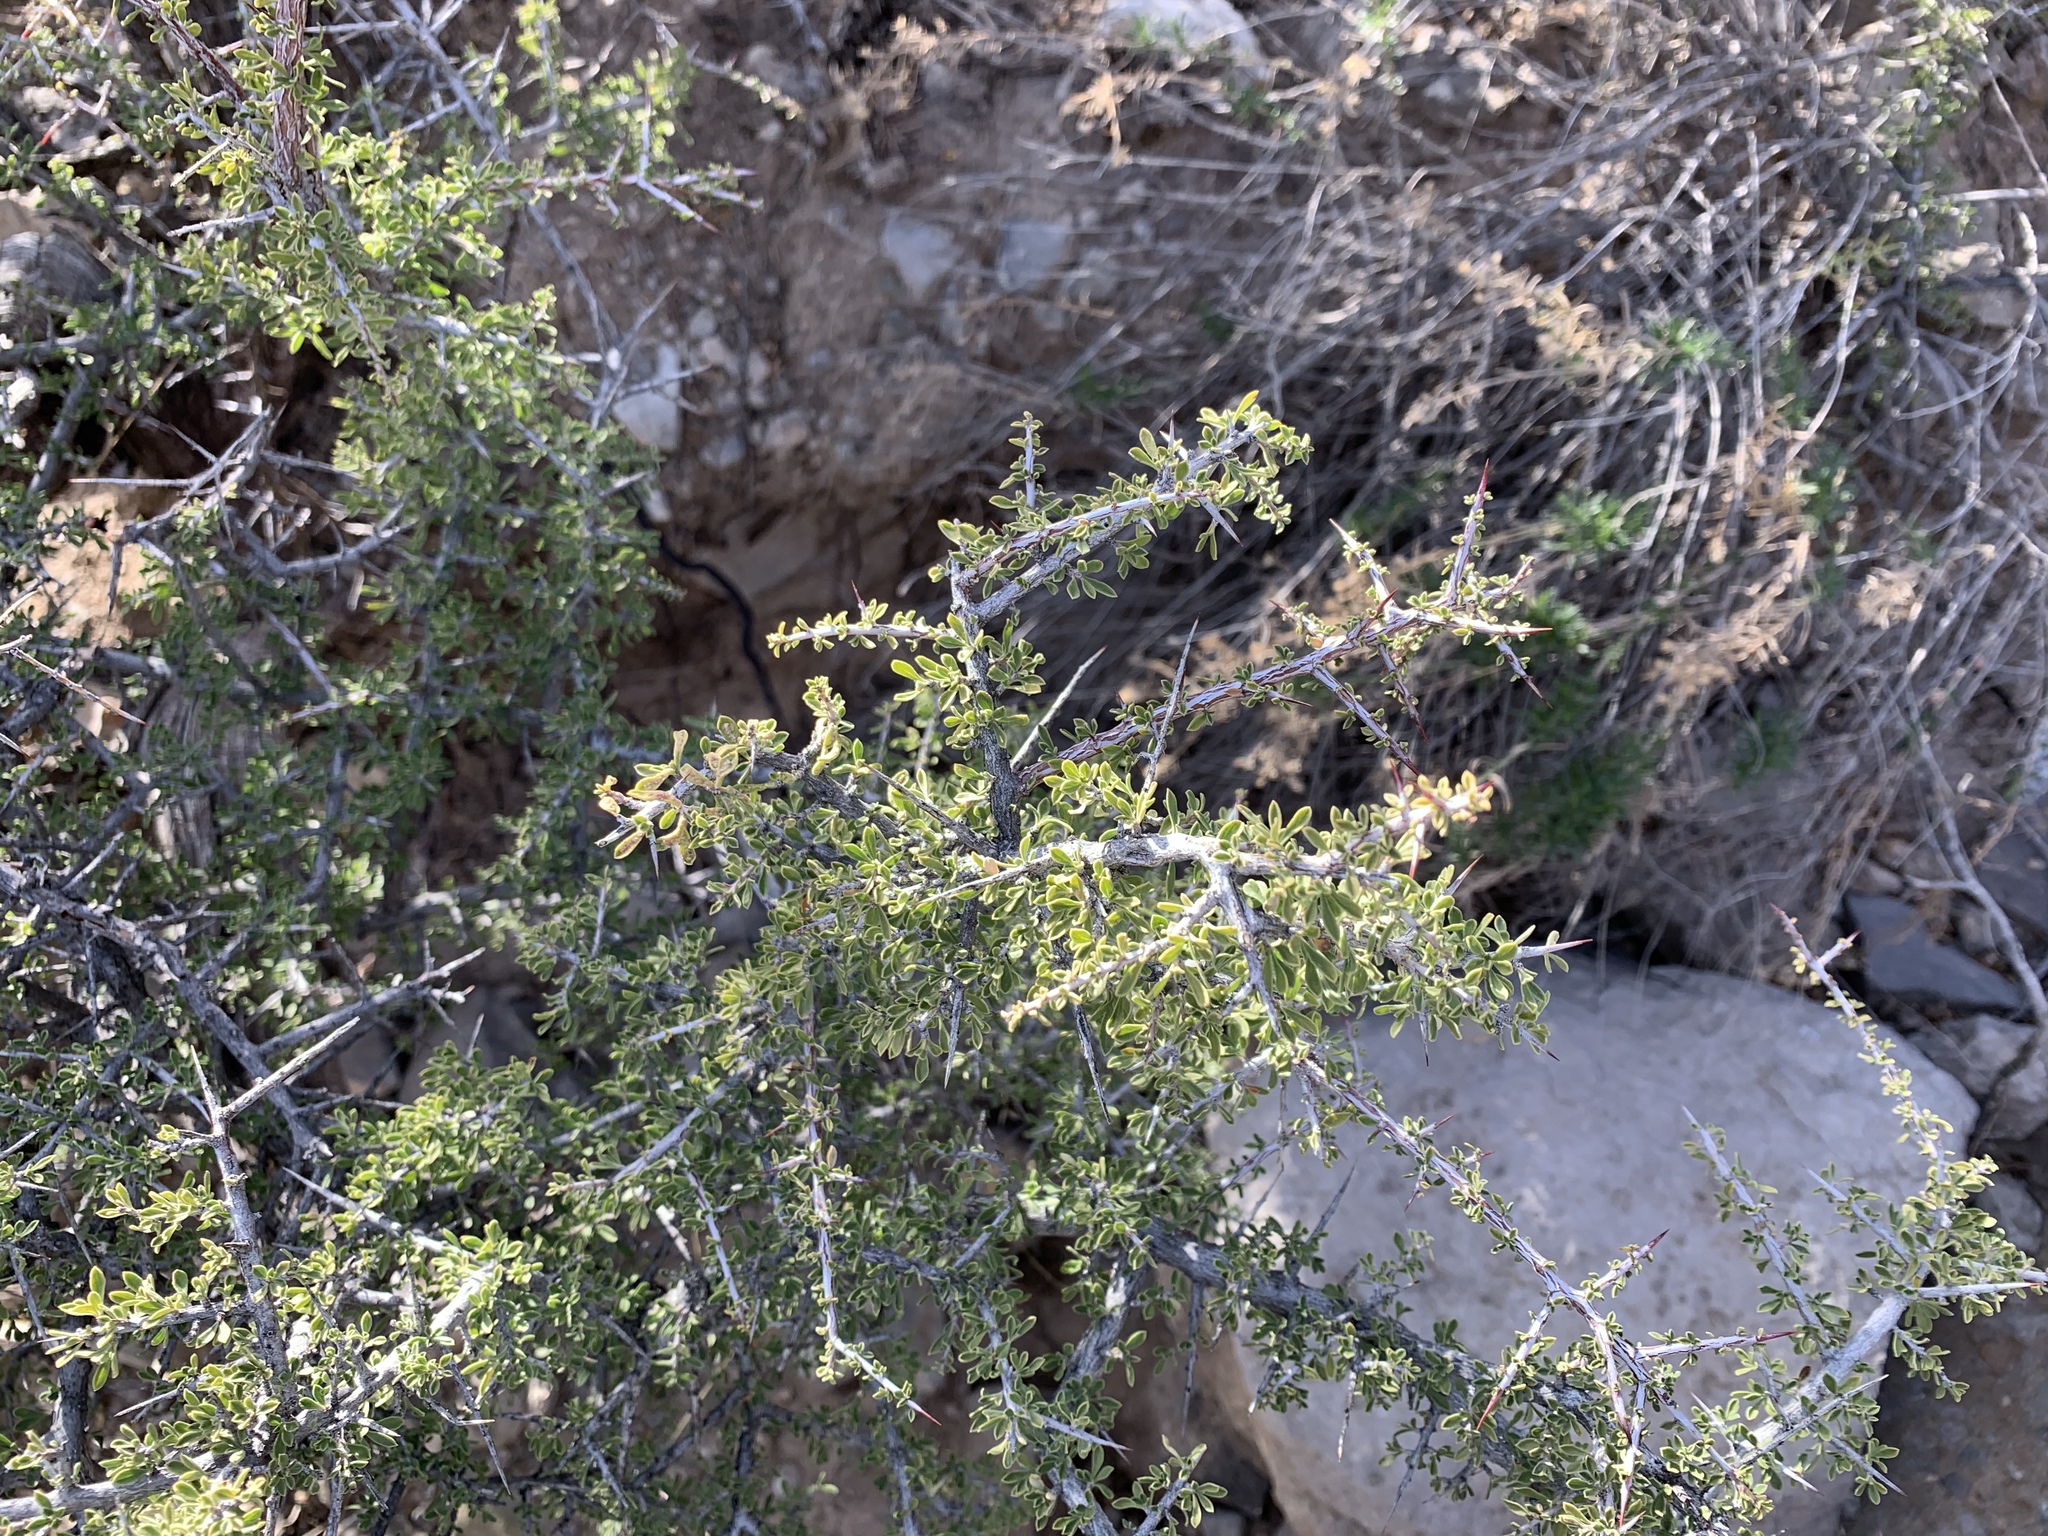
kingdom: Plantae
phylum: Tracheophyta
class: Magnoliopsida
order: Rosales
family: Rhamnaceae
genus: Condalia
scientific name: Condalia warnockii
